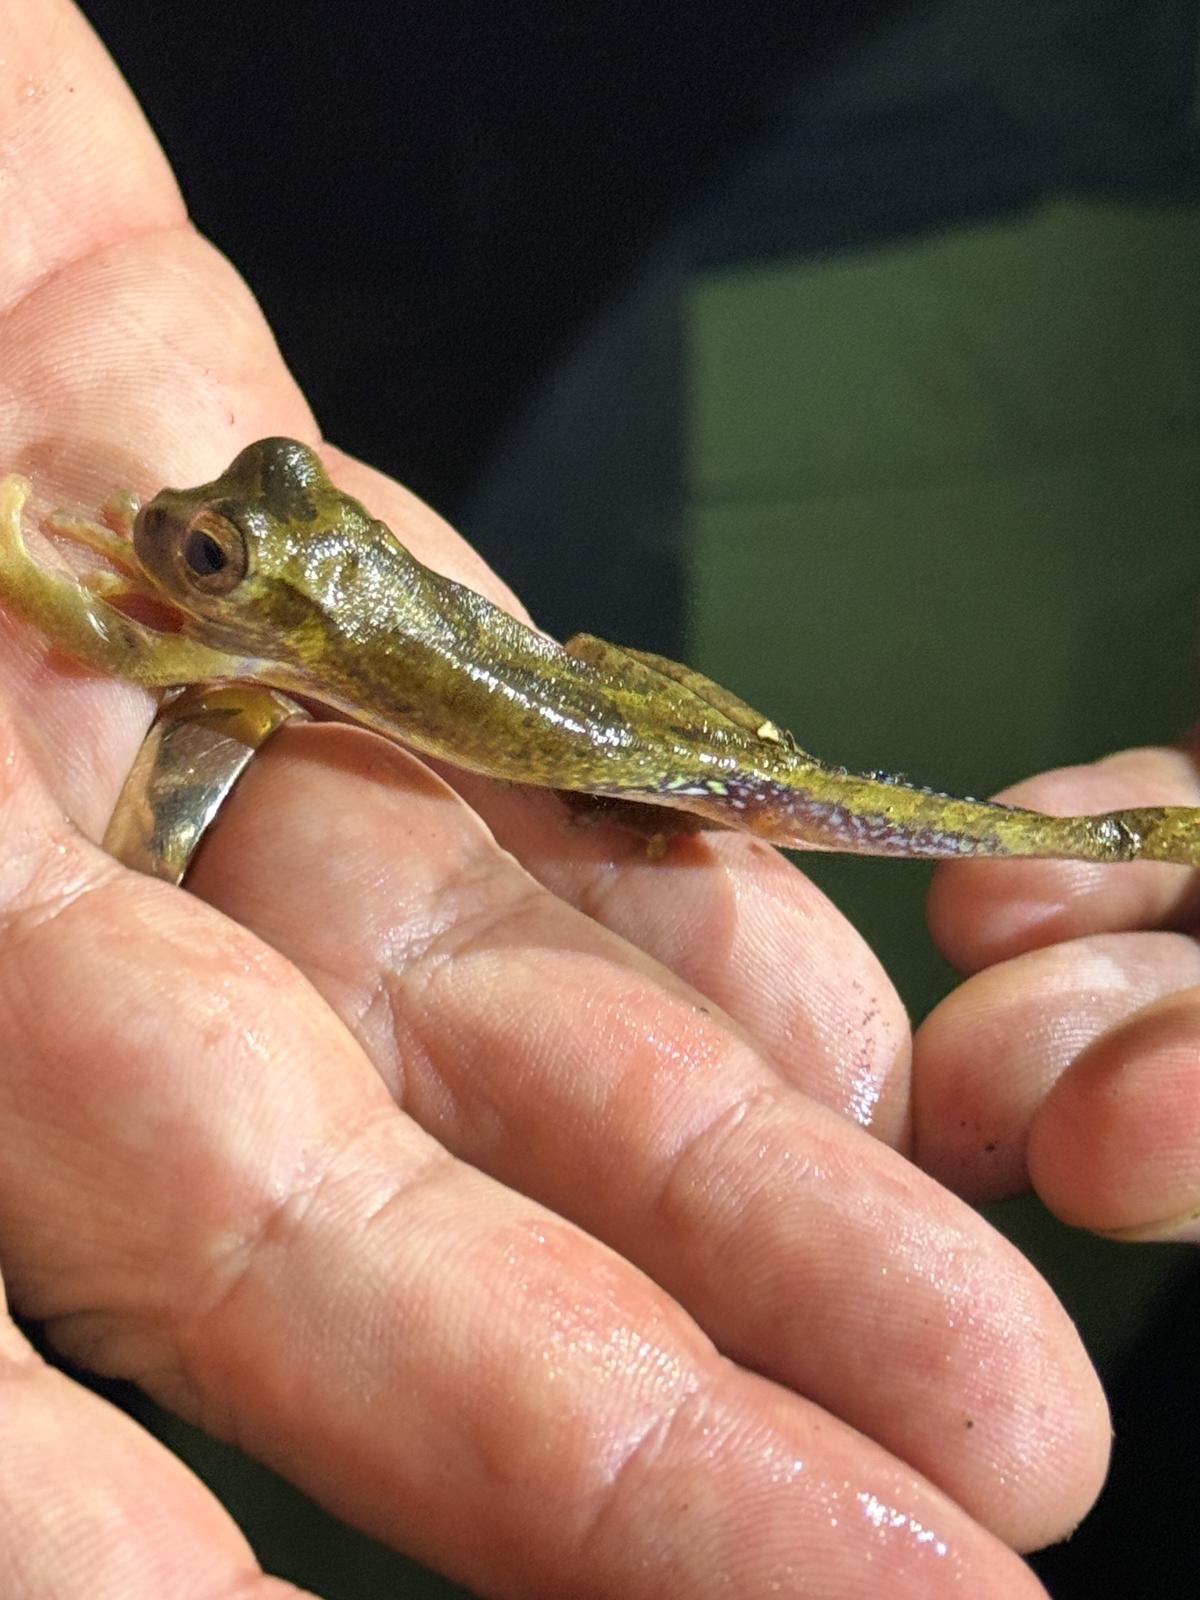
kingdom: Animalia
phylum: Chordata
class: Amphibia
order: Anura
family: Hylidae
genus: Smilisca
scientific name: Smilisca sila
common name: Panama cross-banded treefrog
